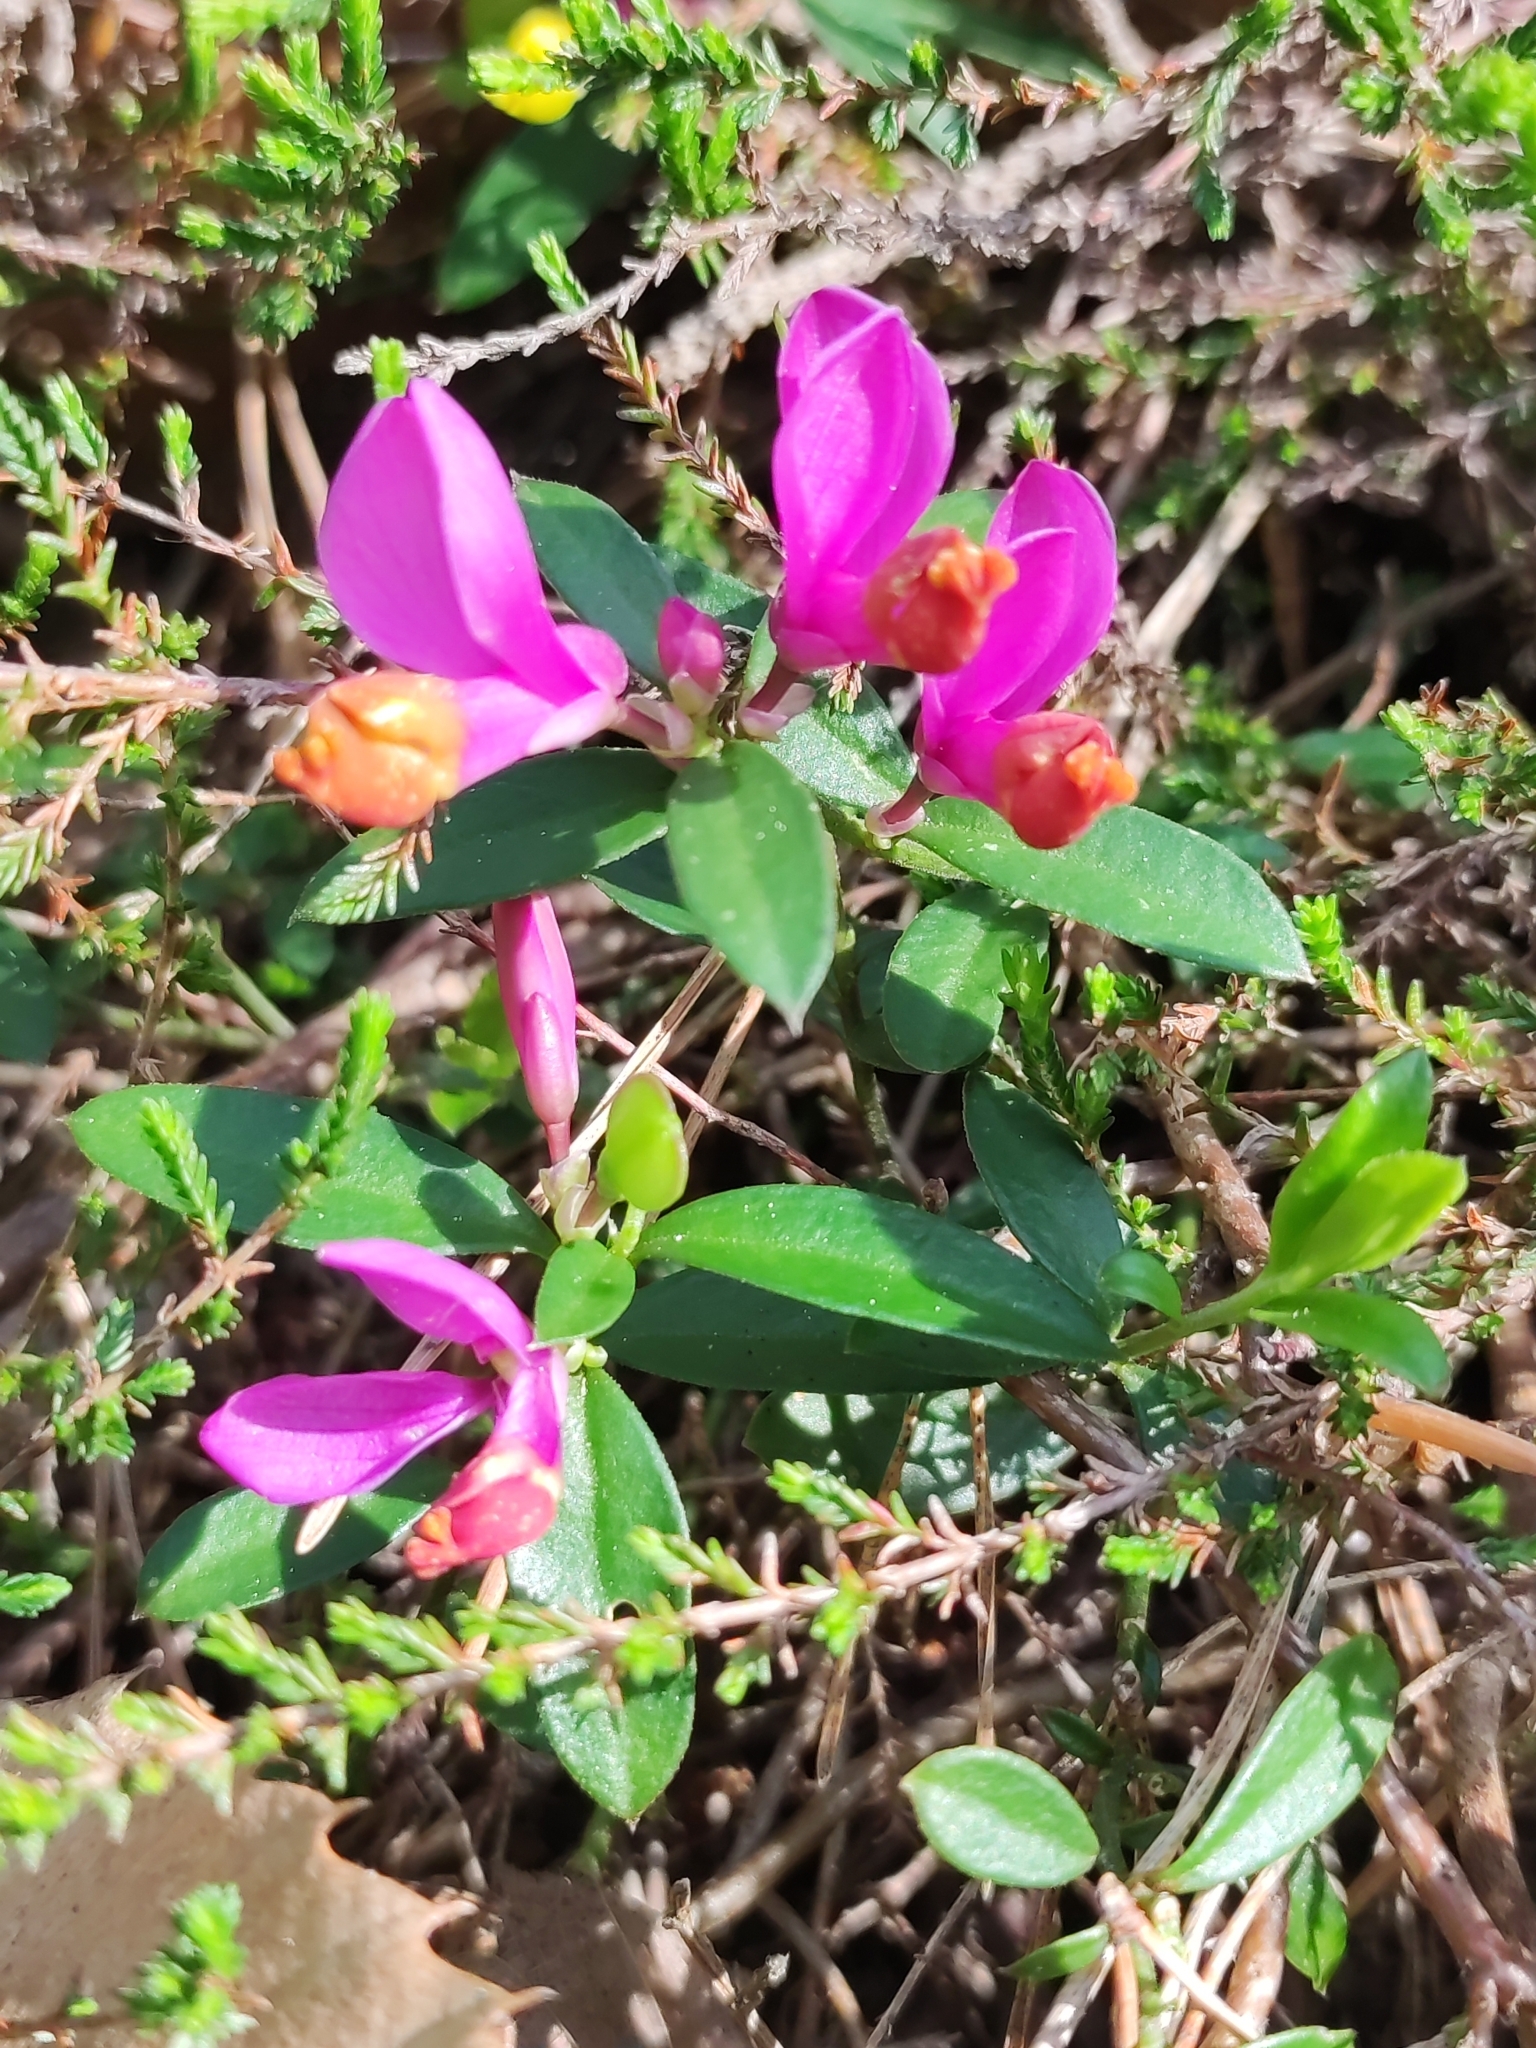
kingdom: Plantae
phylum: Tracheophyta
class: Magnoliopsida
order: Fabales
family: Polygalaceae
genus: Polygaloides
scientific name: Polygaloides chamaebuxus
